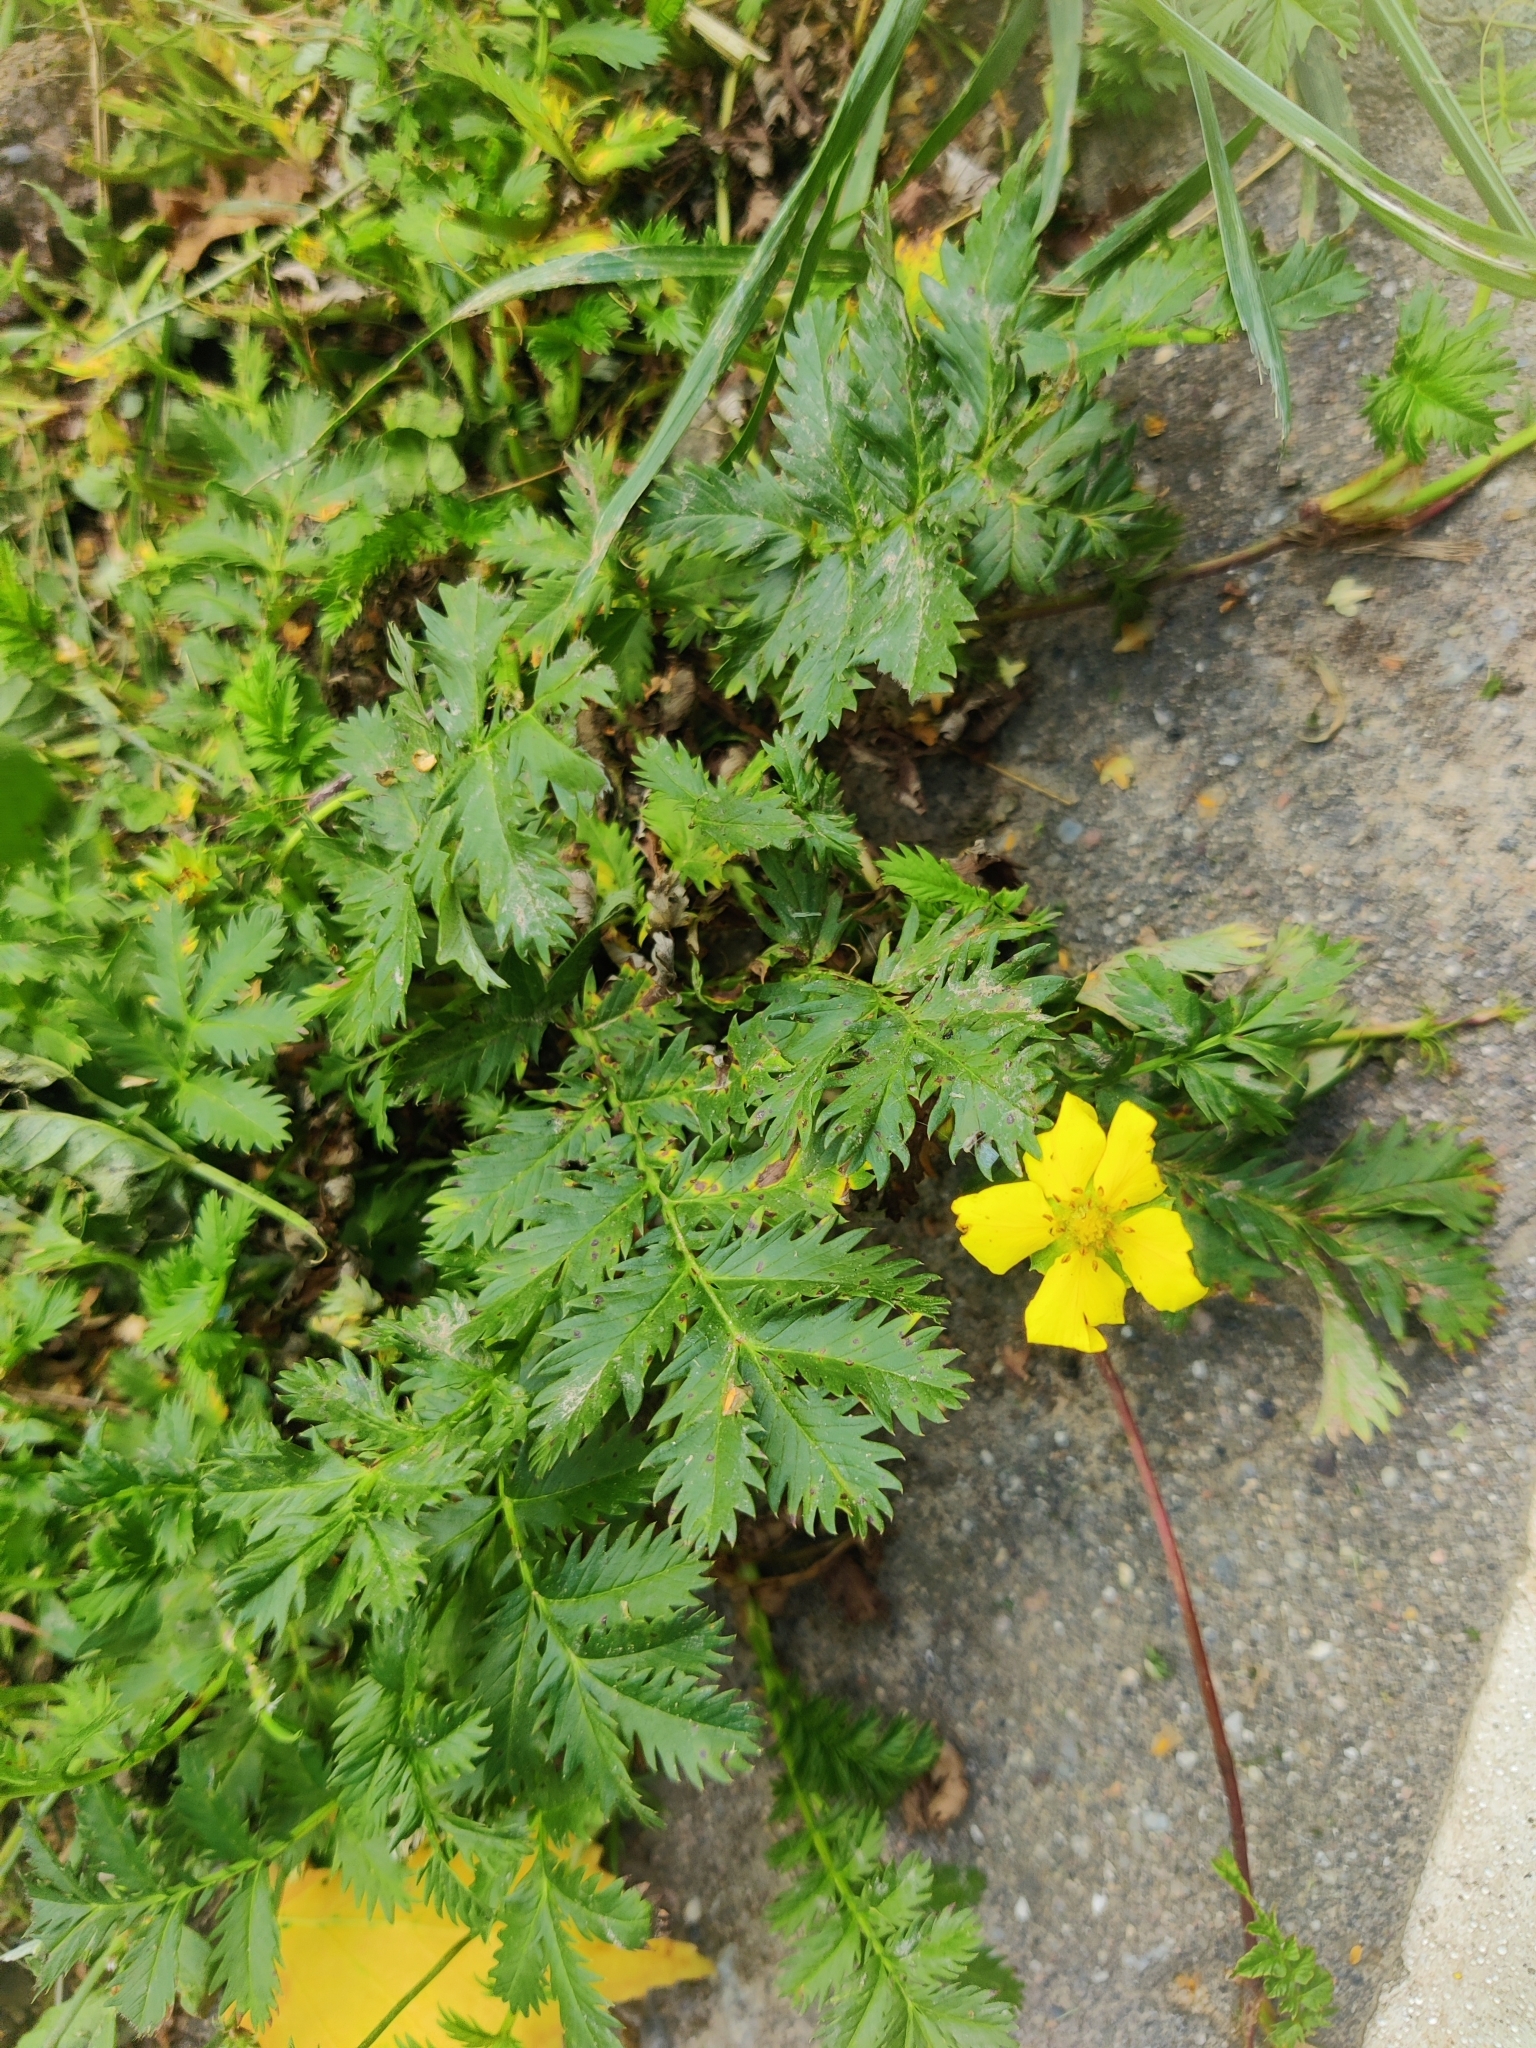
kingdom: Plantae
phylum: Tracheophyta
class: Magnoliopsida
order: Rosales
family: Rosaceae
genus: Argentina
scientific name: Argentina anserina
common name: Common silverweed
